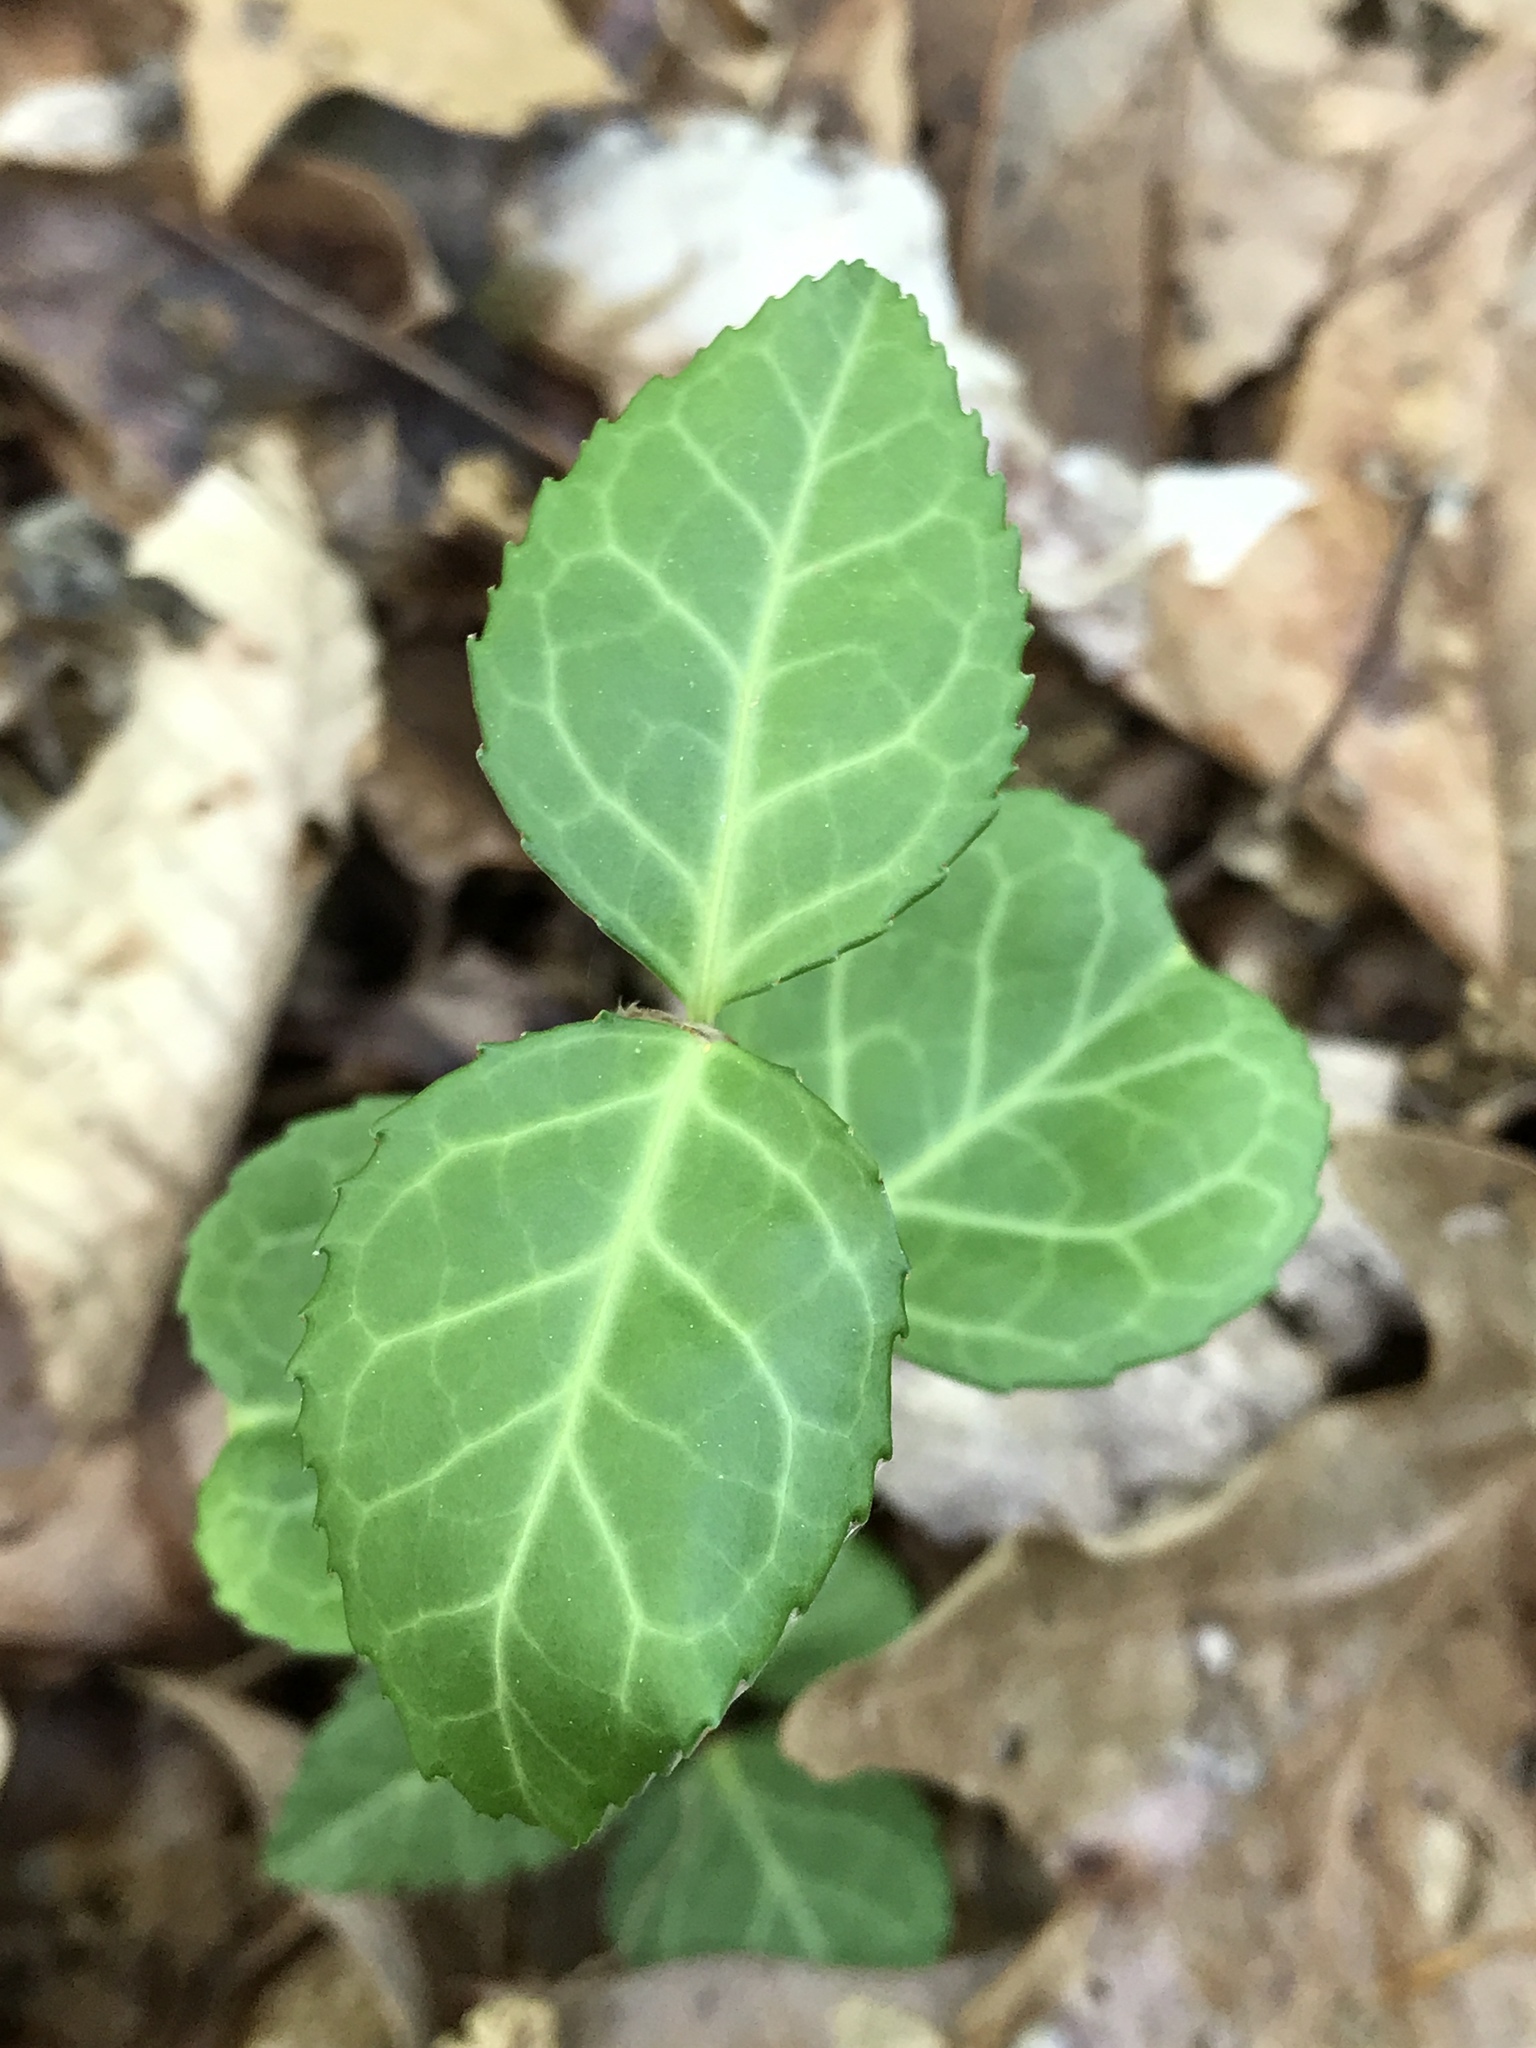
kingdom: Plantae
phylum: Tracheophyta
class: Magnoliopsida
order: Celastrales
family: Celastraceae
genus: Euonymus
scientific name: Euonymus fortunei
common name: Climbing euonymus
